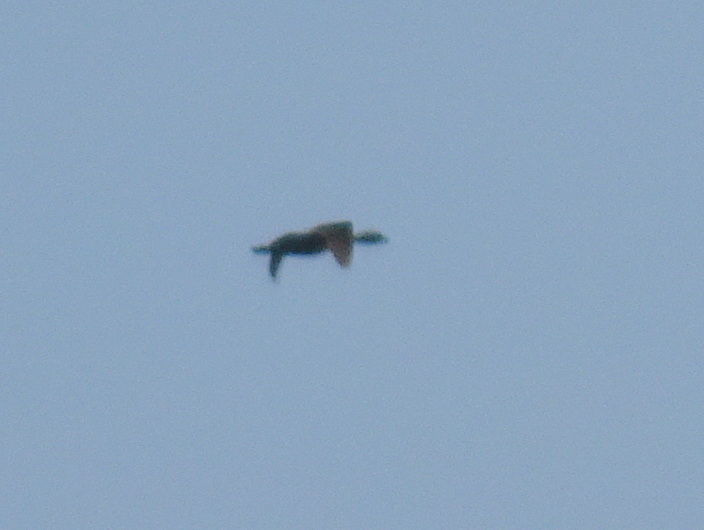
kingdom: Animalia
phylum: Chordata
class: Aves
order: Podicipediformes
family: Podicipedidae
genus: Podilymbus
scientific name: Podilymbus podiceps
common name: Pied-billed grebe
